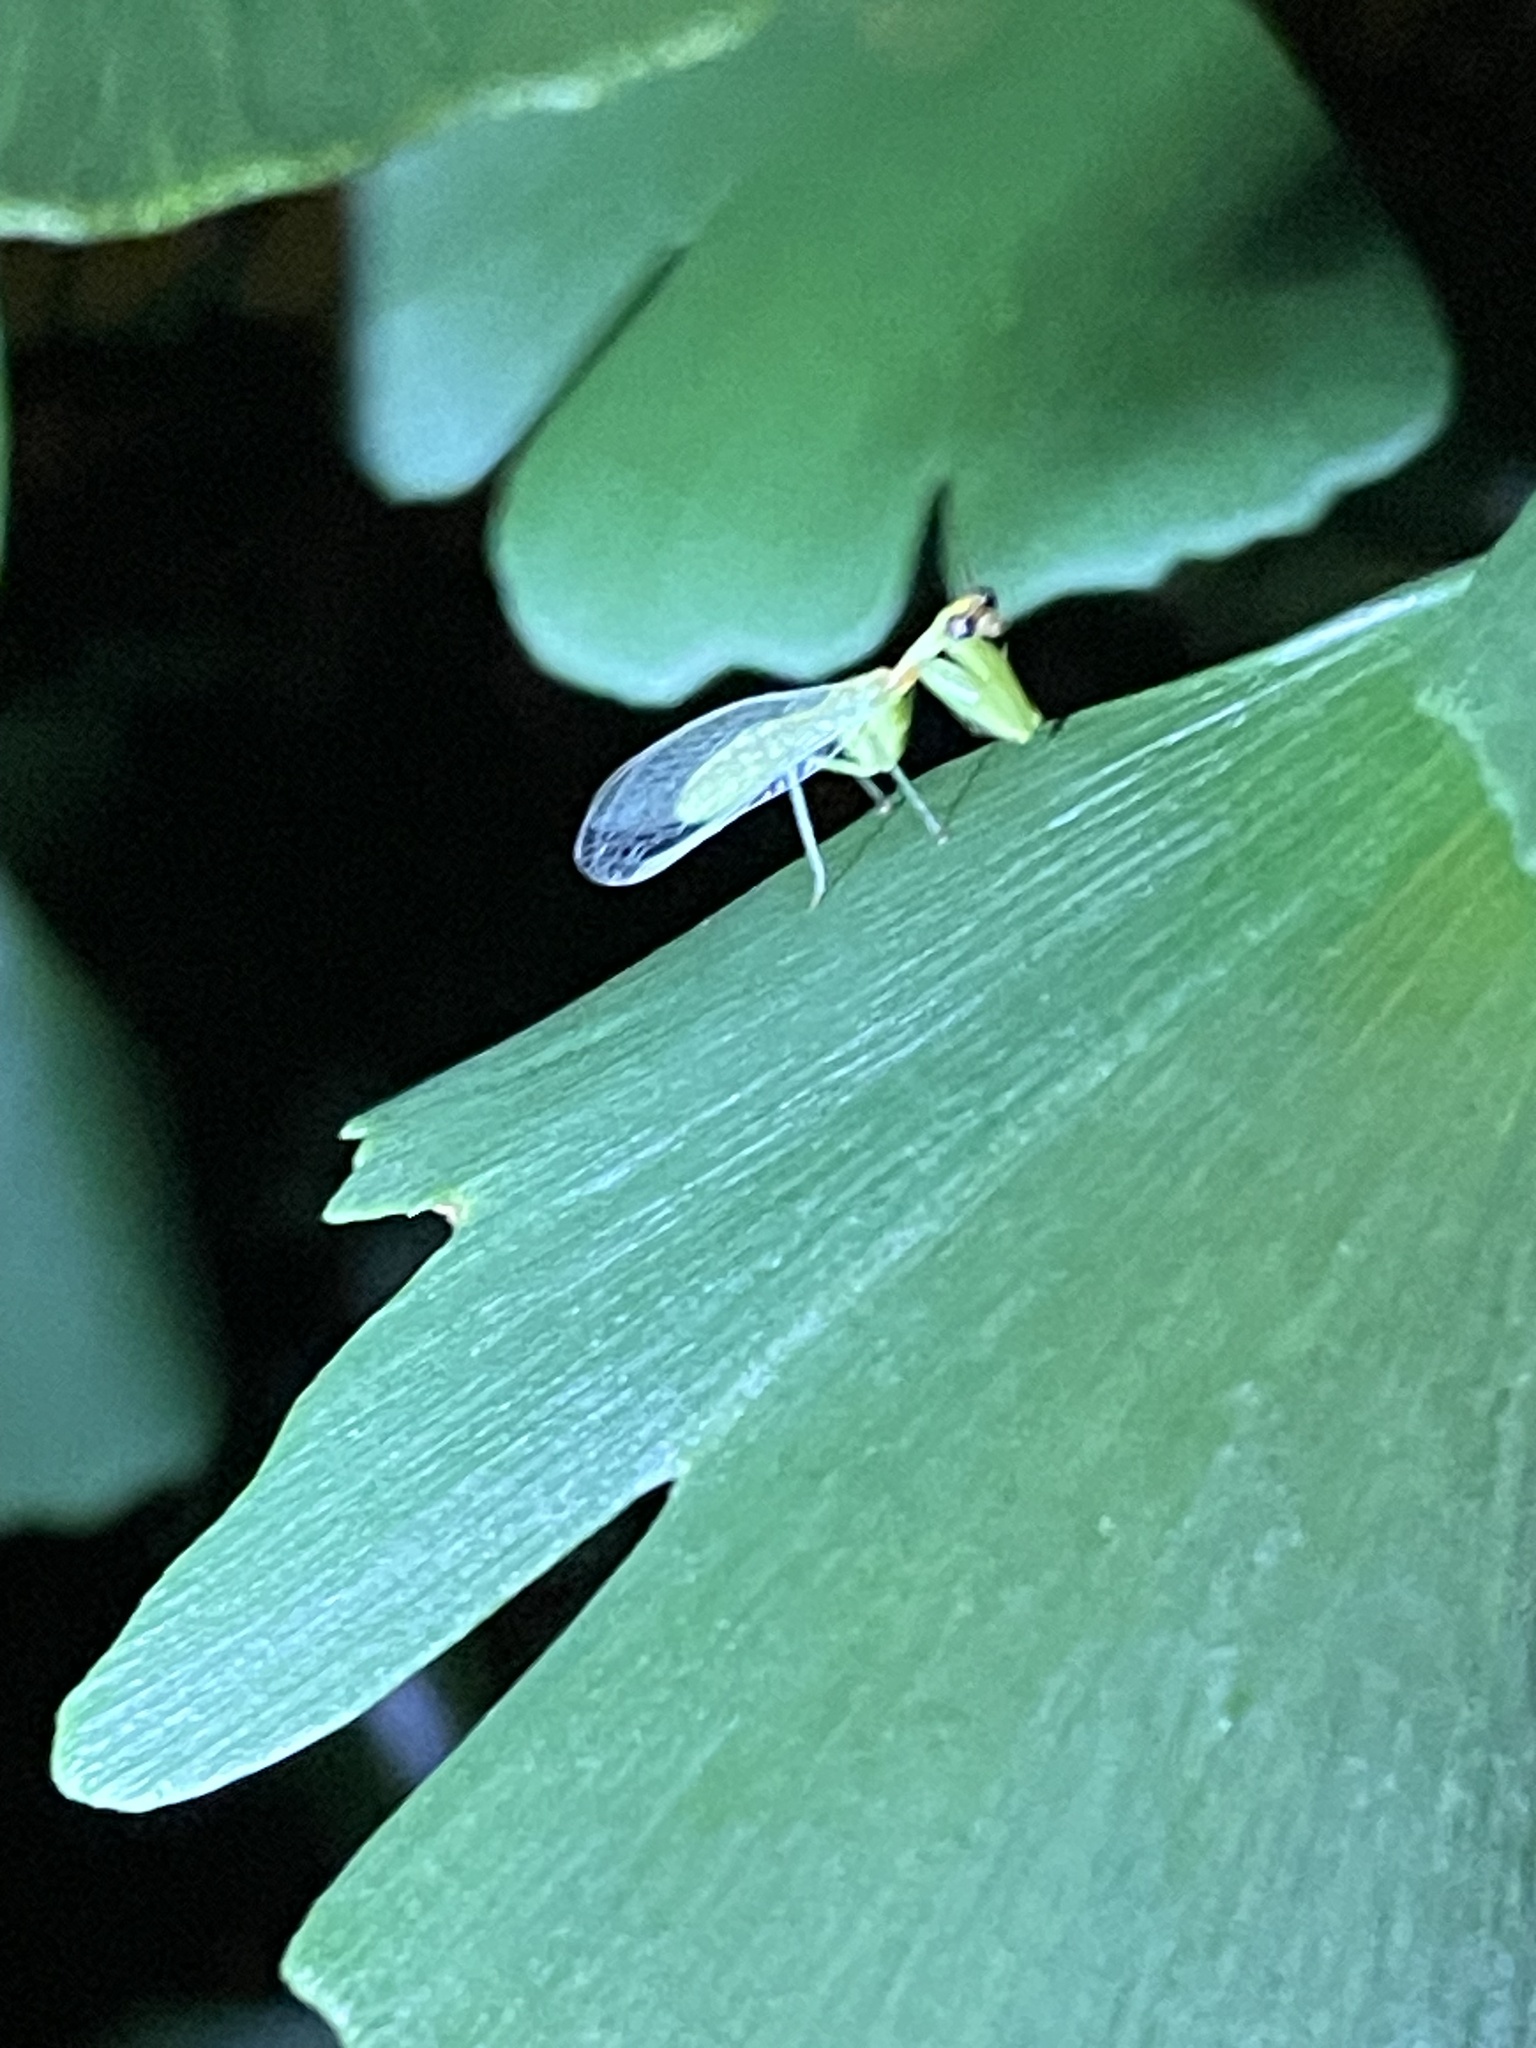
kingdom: Animalia
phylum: Arthropoda
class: Insecta
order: Neuroptera
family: Mantispidae
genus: Zeugomantispa
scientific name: Zeugomantispa minuta
